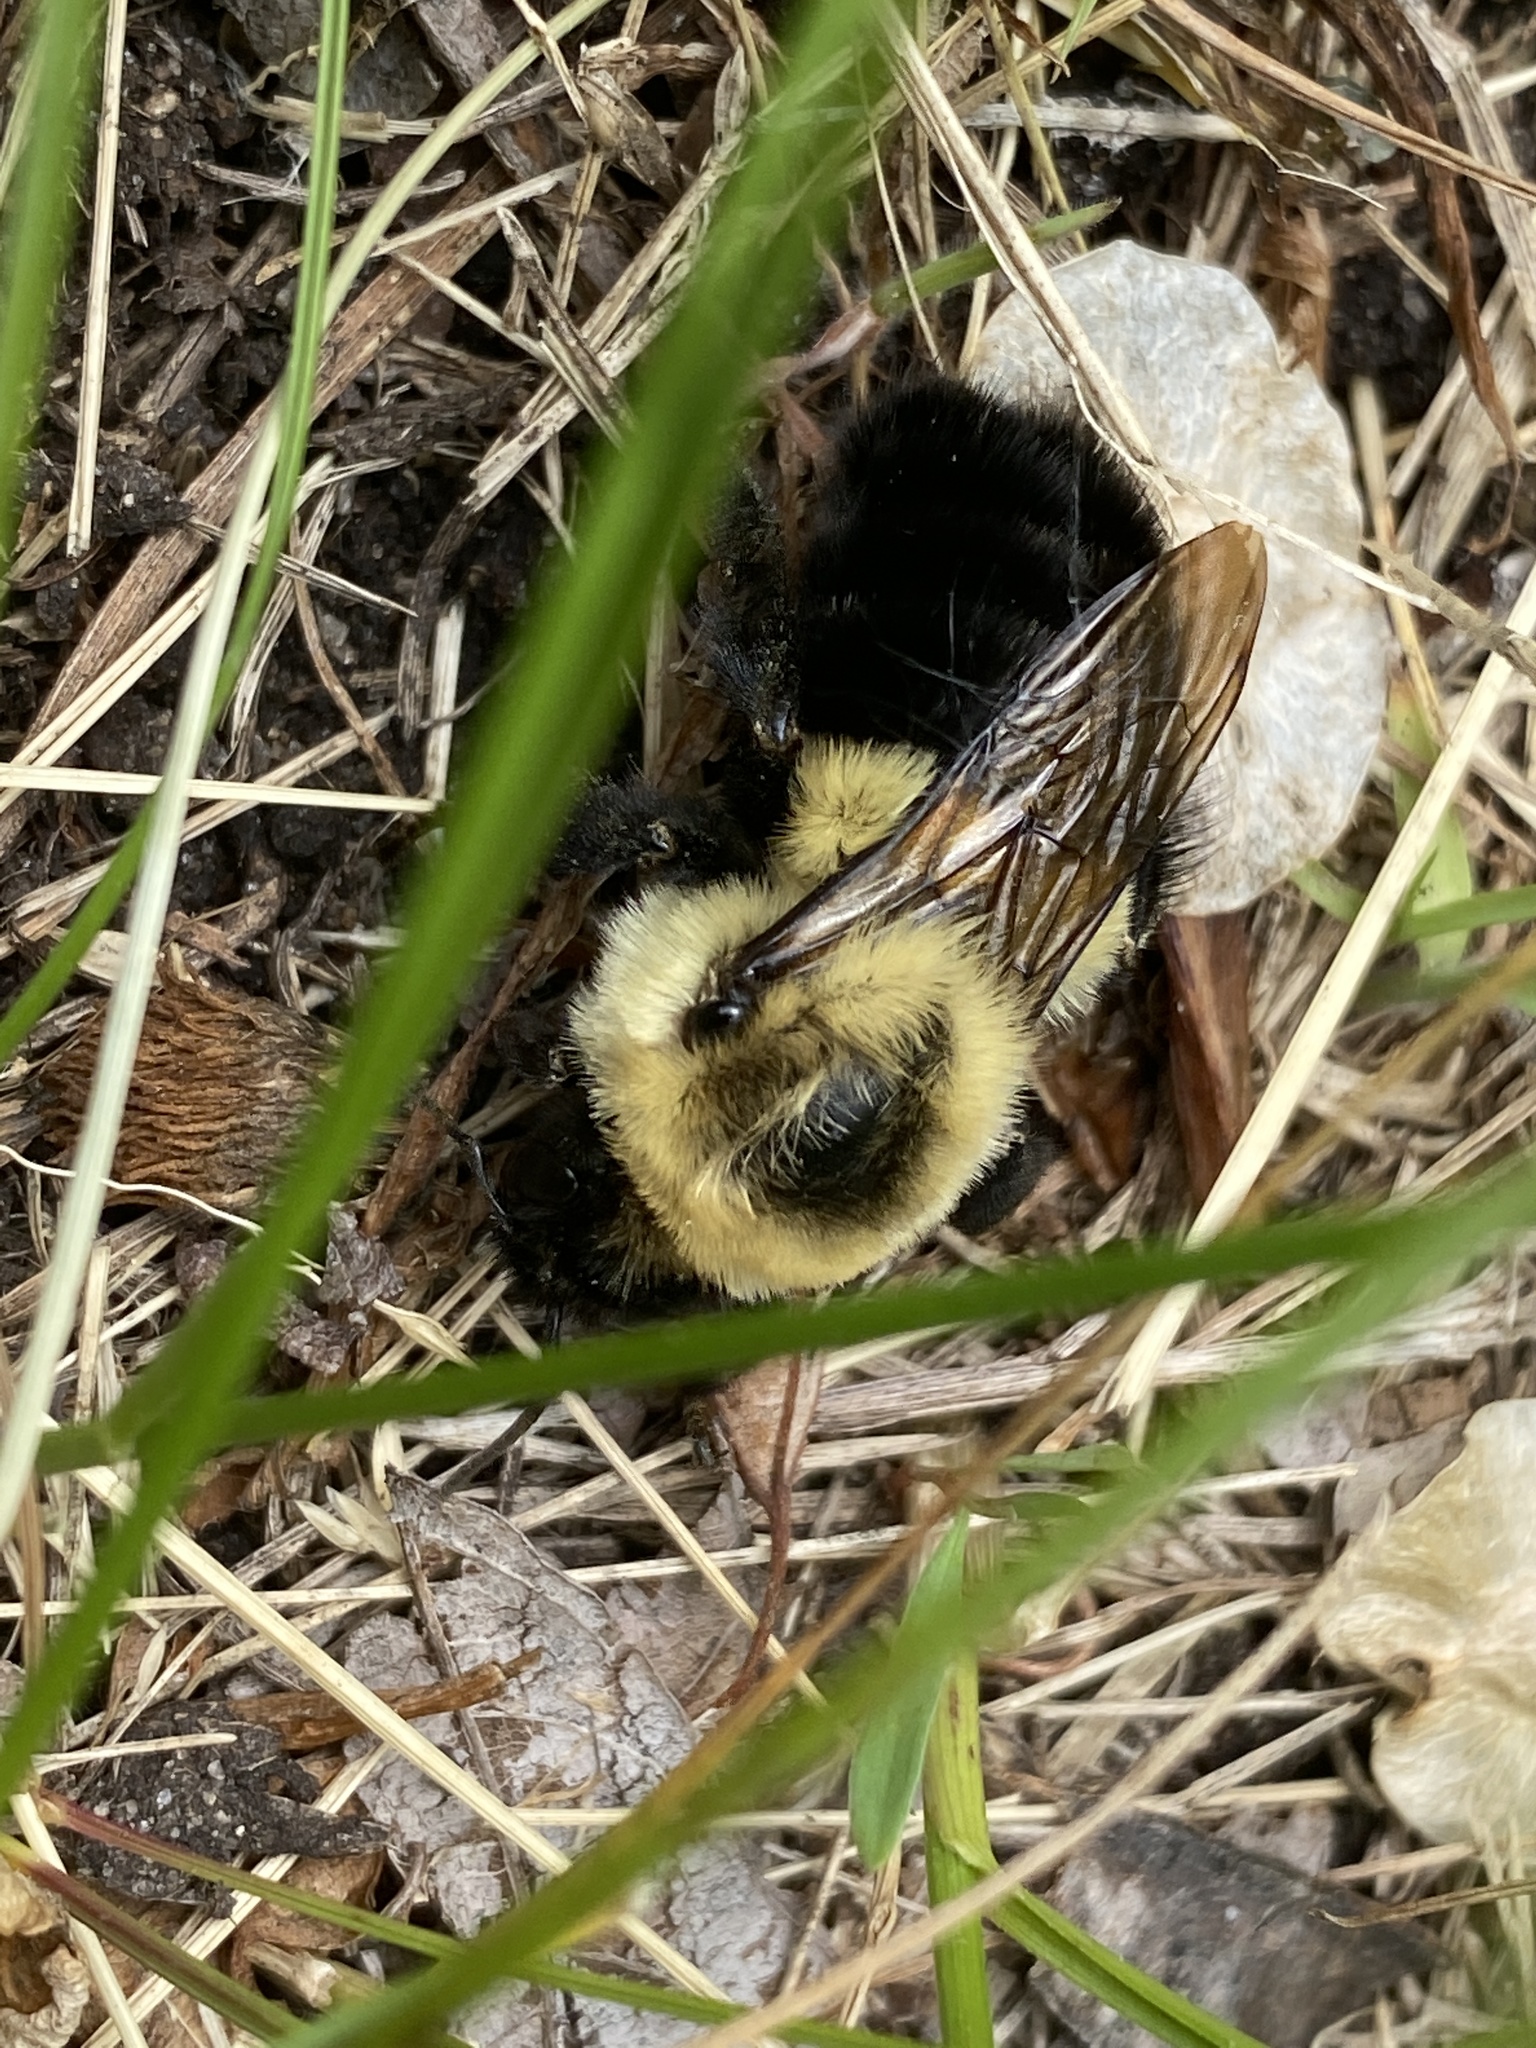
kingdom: Animalia
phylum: Arthropoda
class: Insecta
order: Hymenoptera
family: Apidae
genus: Bombus
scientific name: Bombus impatiens
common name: Common eastern bumble bee
